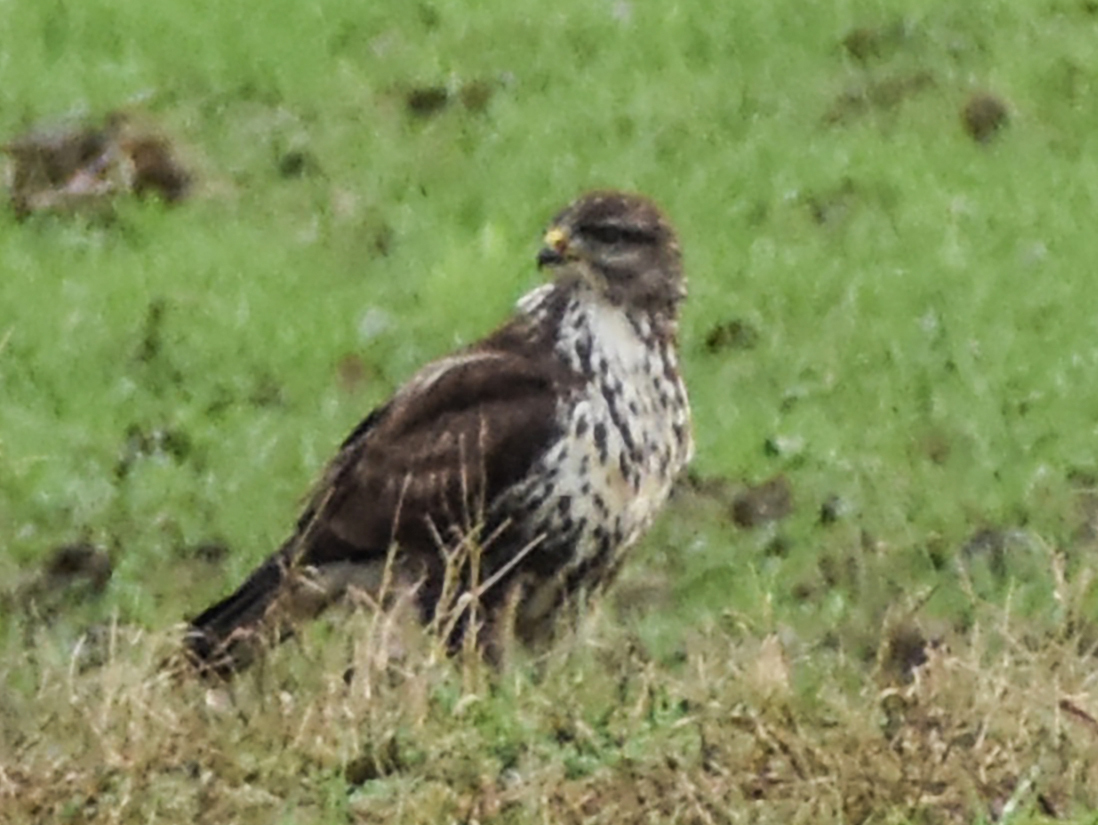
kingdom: Animalia
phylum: Chordata
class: Aves
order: Accipitriformes
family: Accipitridae
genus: Buteo
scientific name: Buteo buteo
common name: Common buzzard
